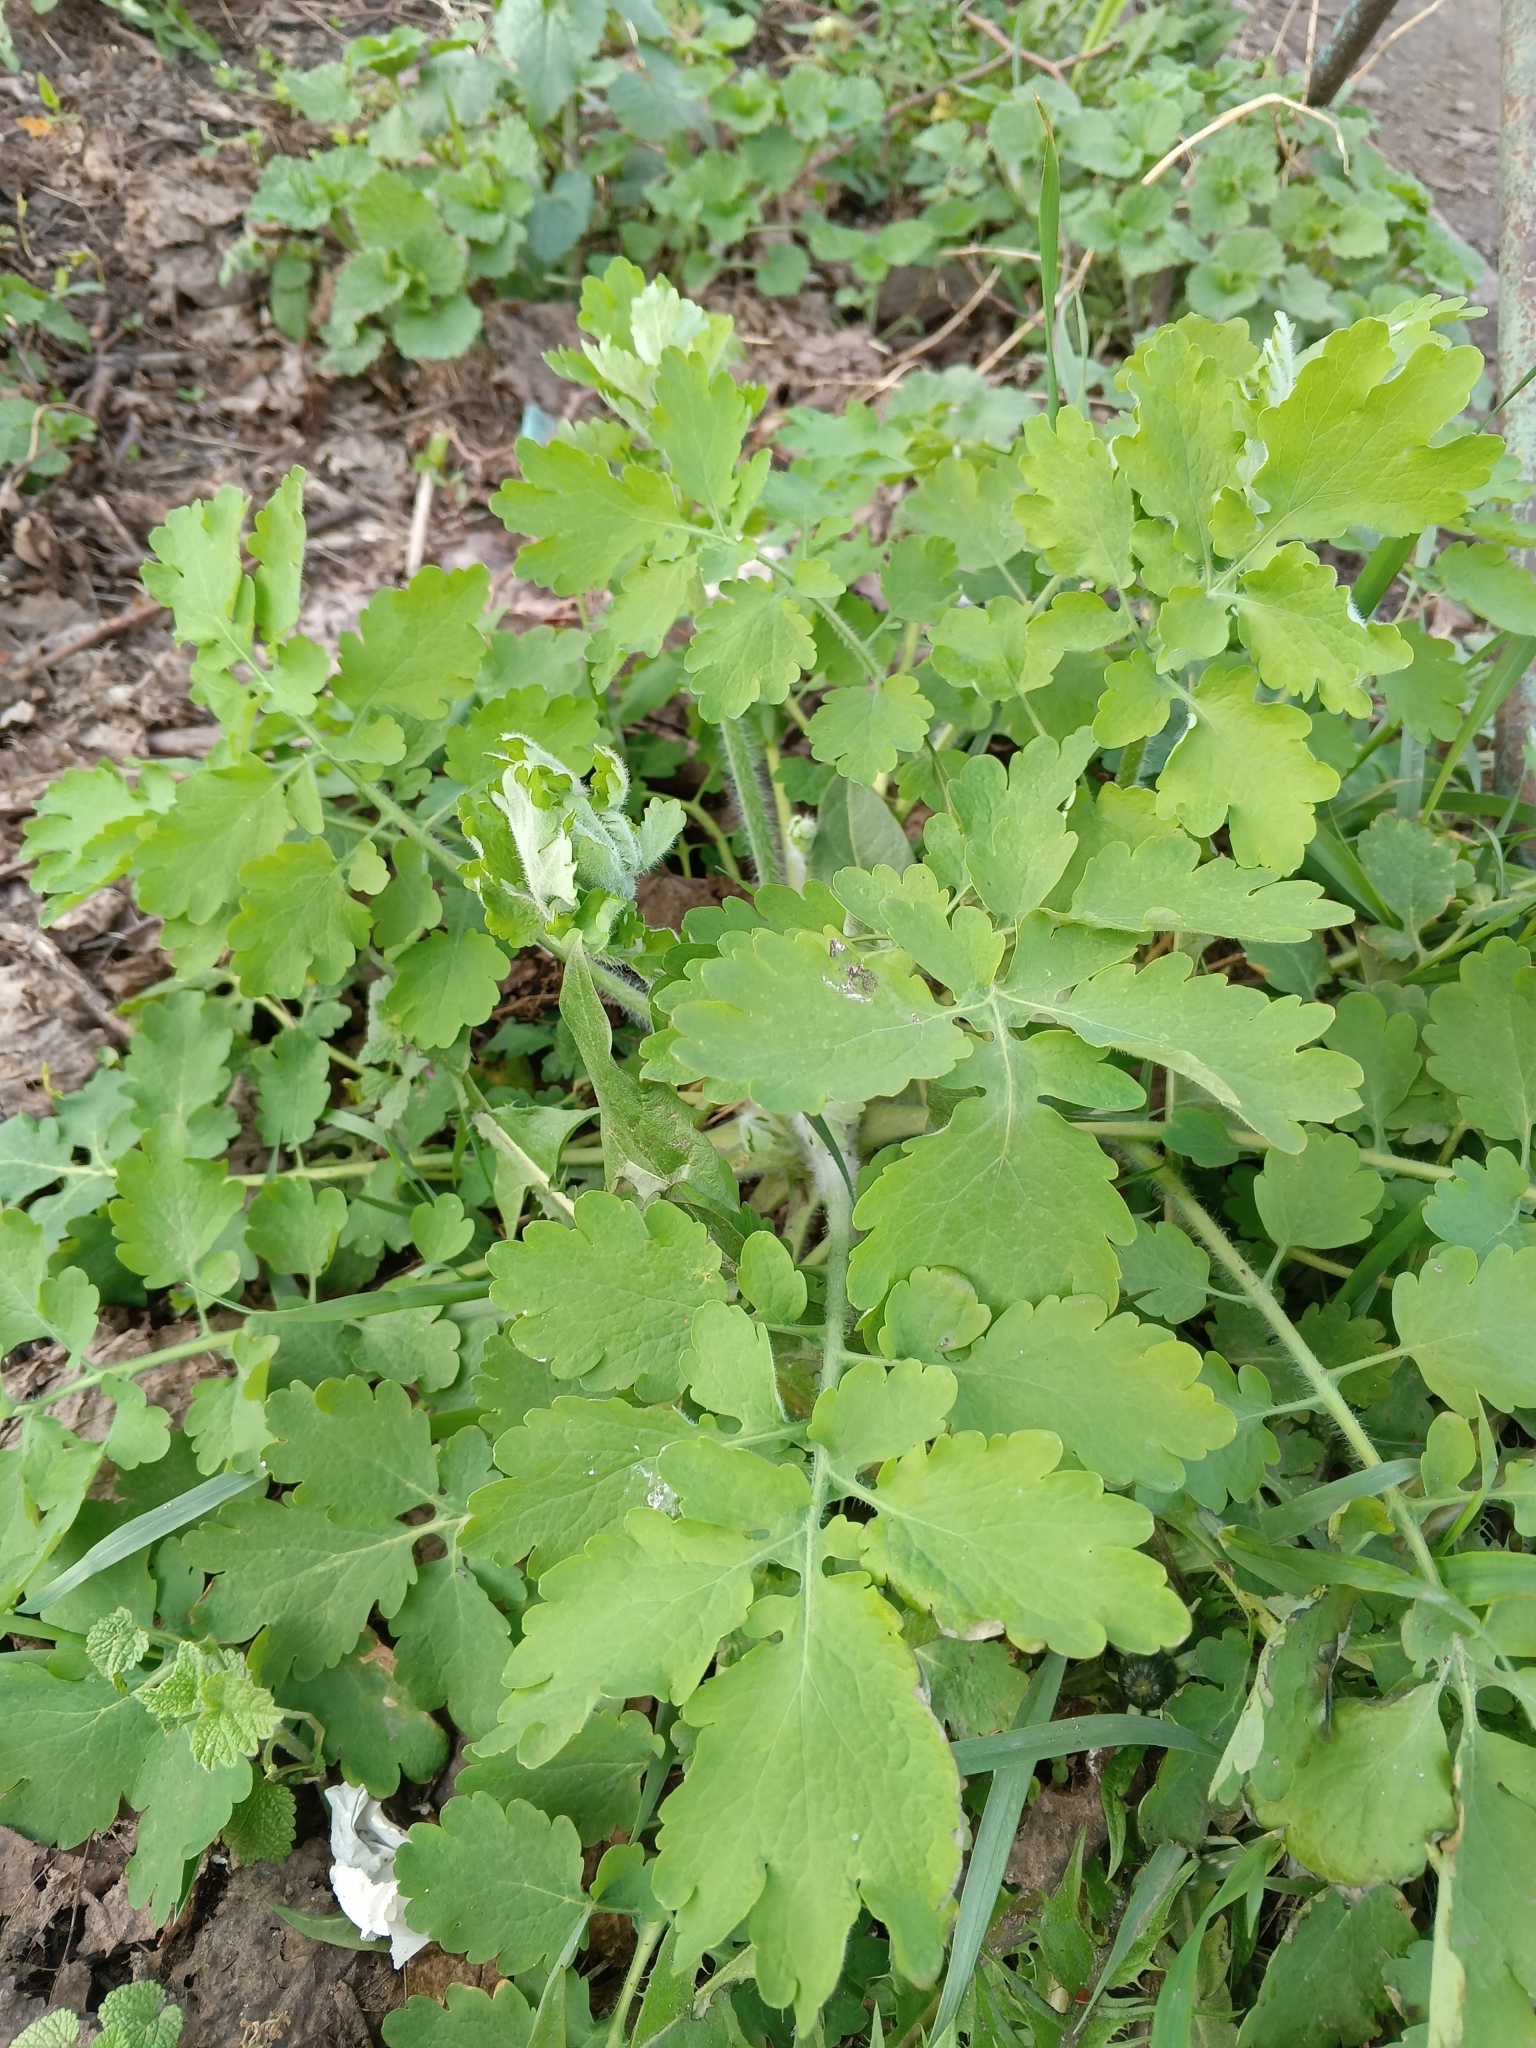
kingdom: Plantae
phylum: Tracheophyta
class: Magnoliopsida
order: Ranunculales
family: Papaveraceae
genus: Chelidonium
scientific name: Chelidonium majus
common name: Greater celandine
